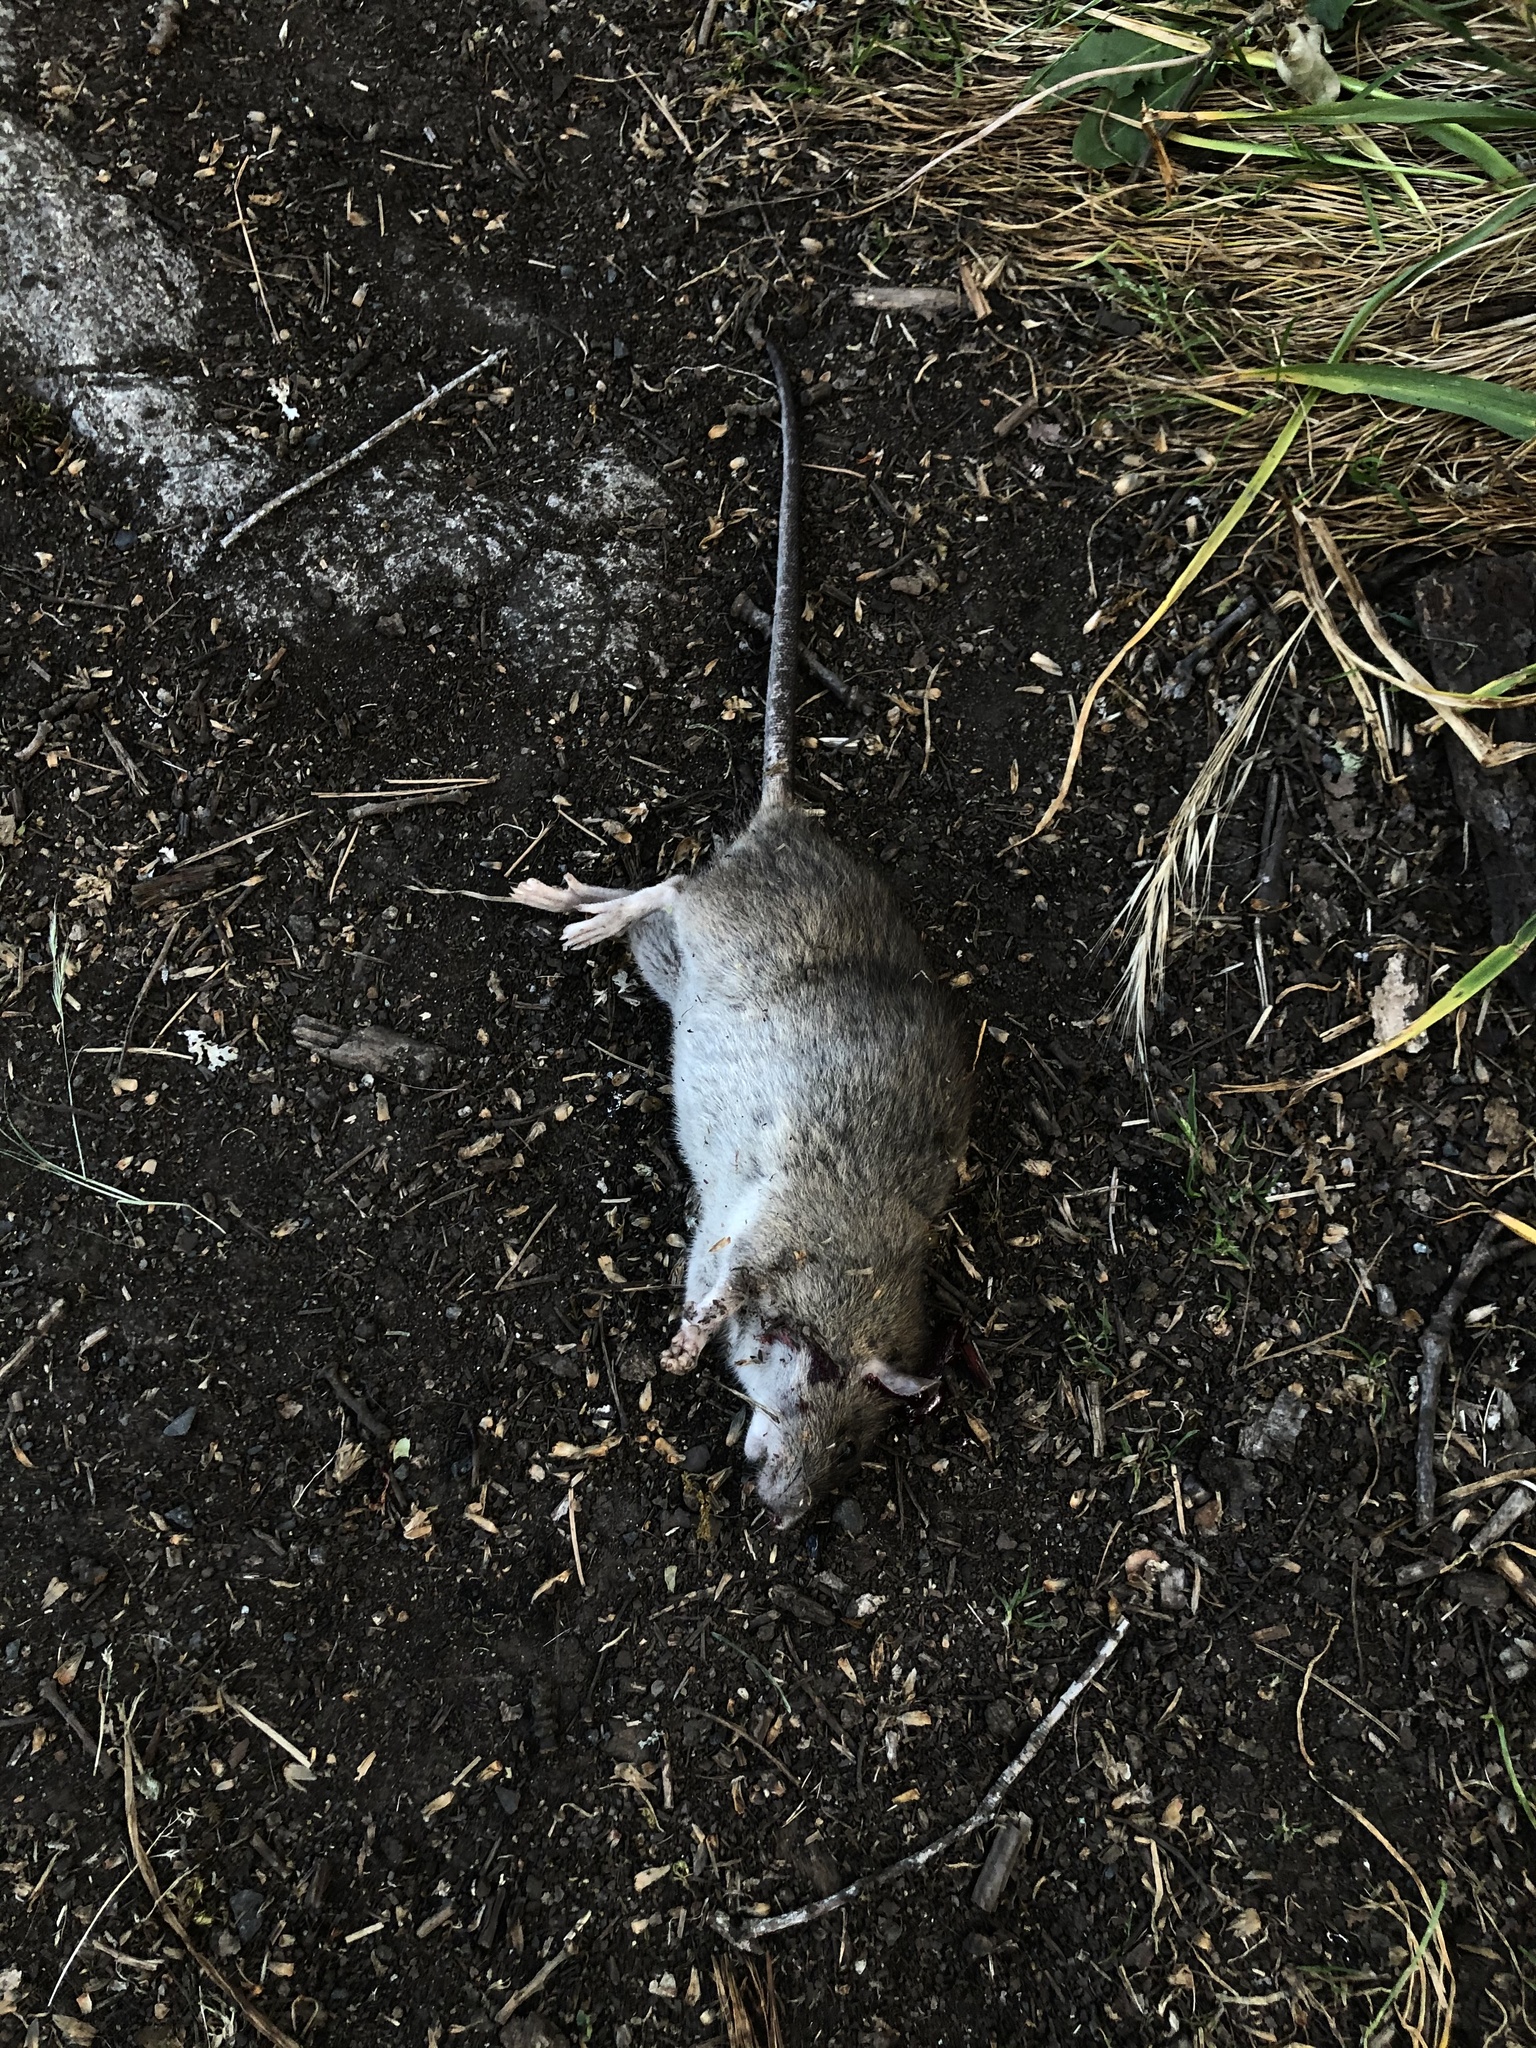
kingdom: Animalia
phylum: Chordata
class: Mammalia
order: Rodentia
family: Muridae
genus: Rattus
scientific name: Rattus norvegicus
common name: Brown rat
